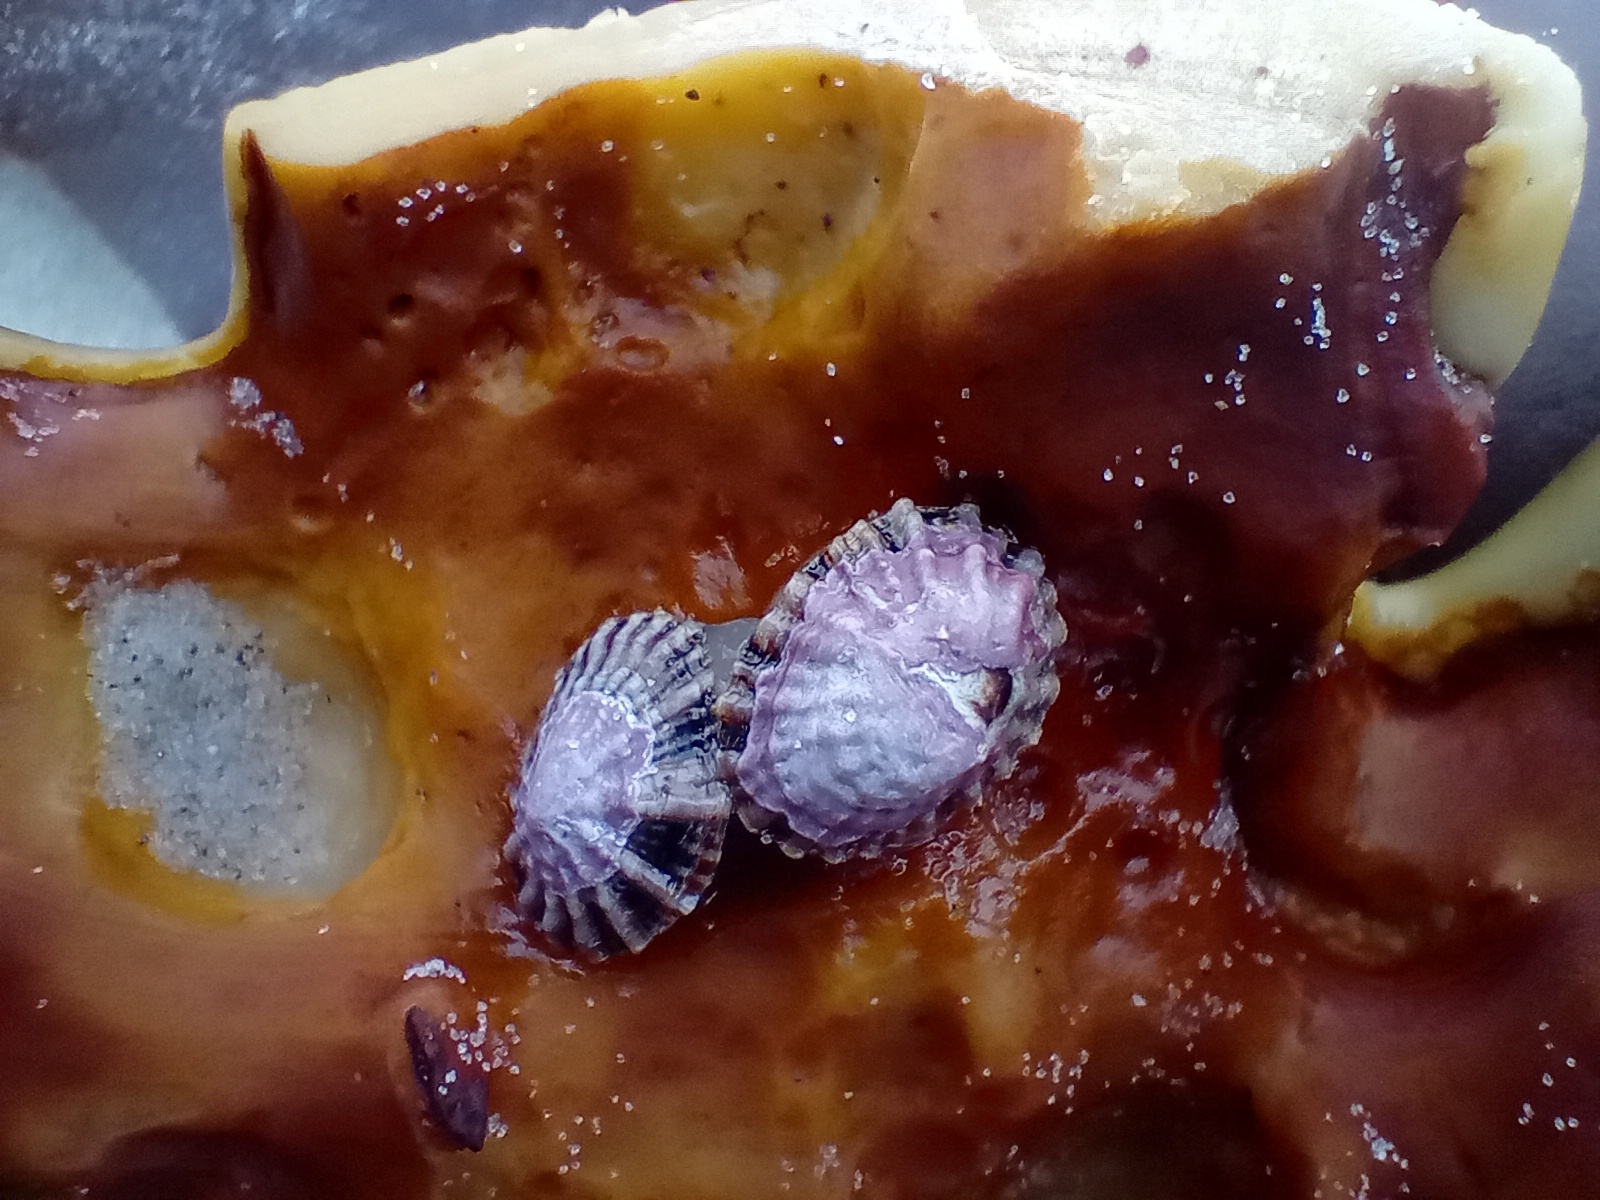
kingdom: Animalia
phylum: Mollusca
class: Gastropoda
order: Siphonariida
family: Siphonariidae
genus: Siphonaria
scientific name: Siphonaria australis
